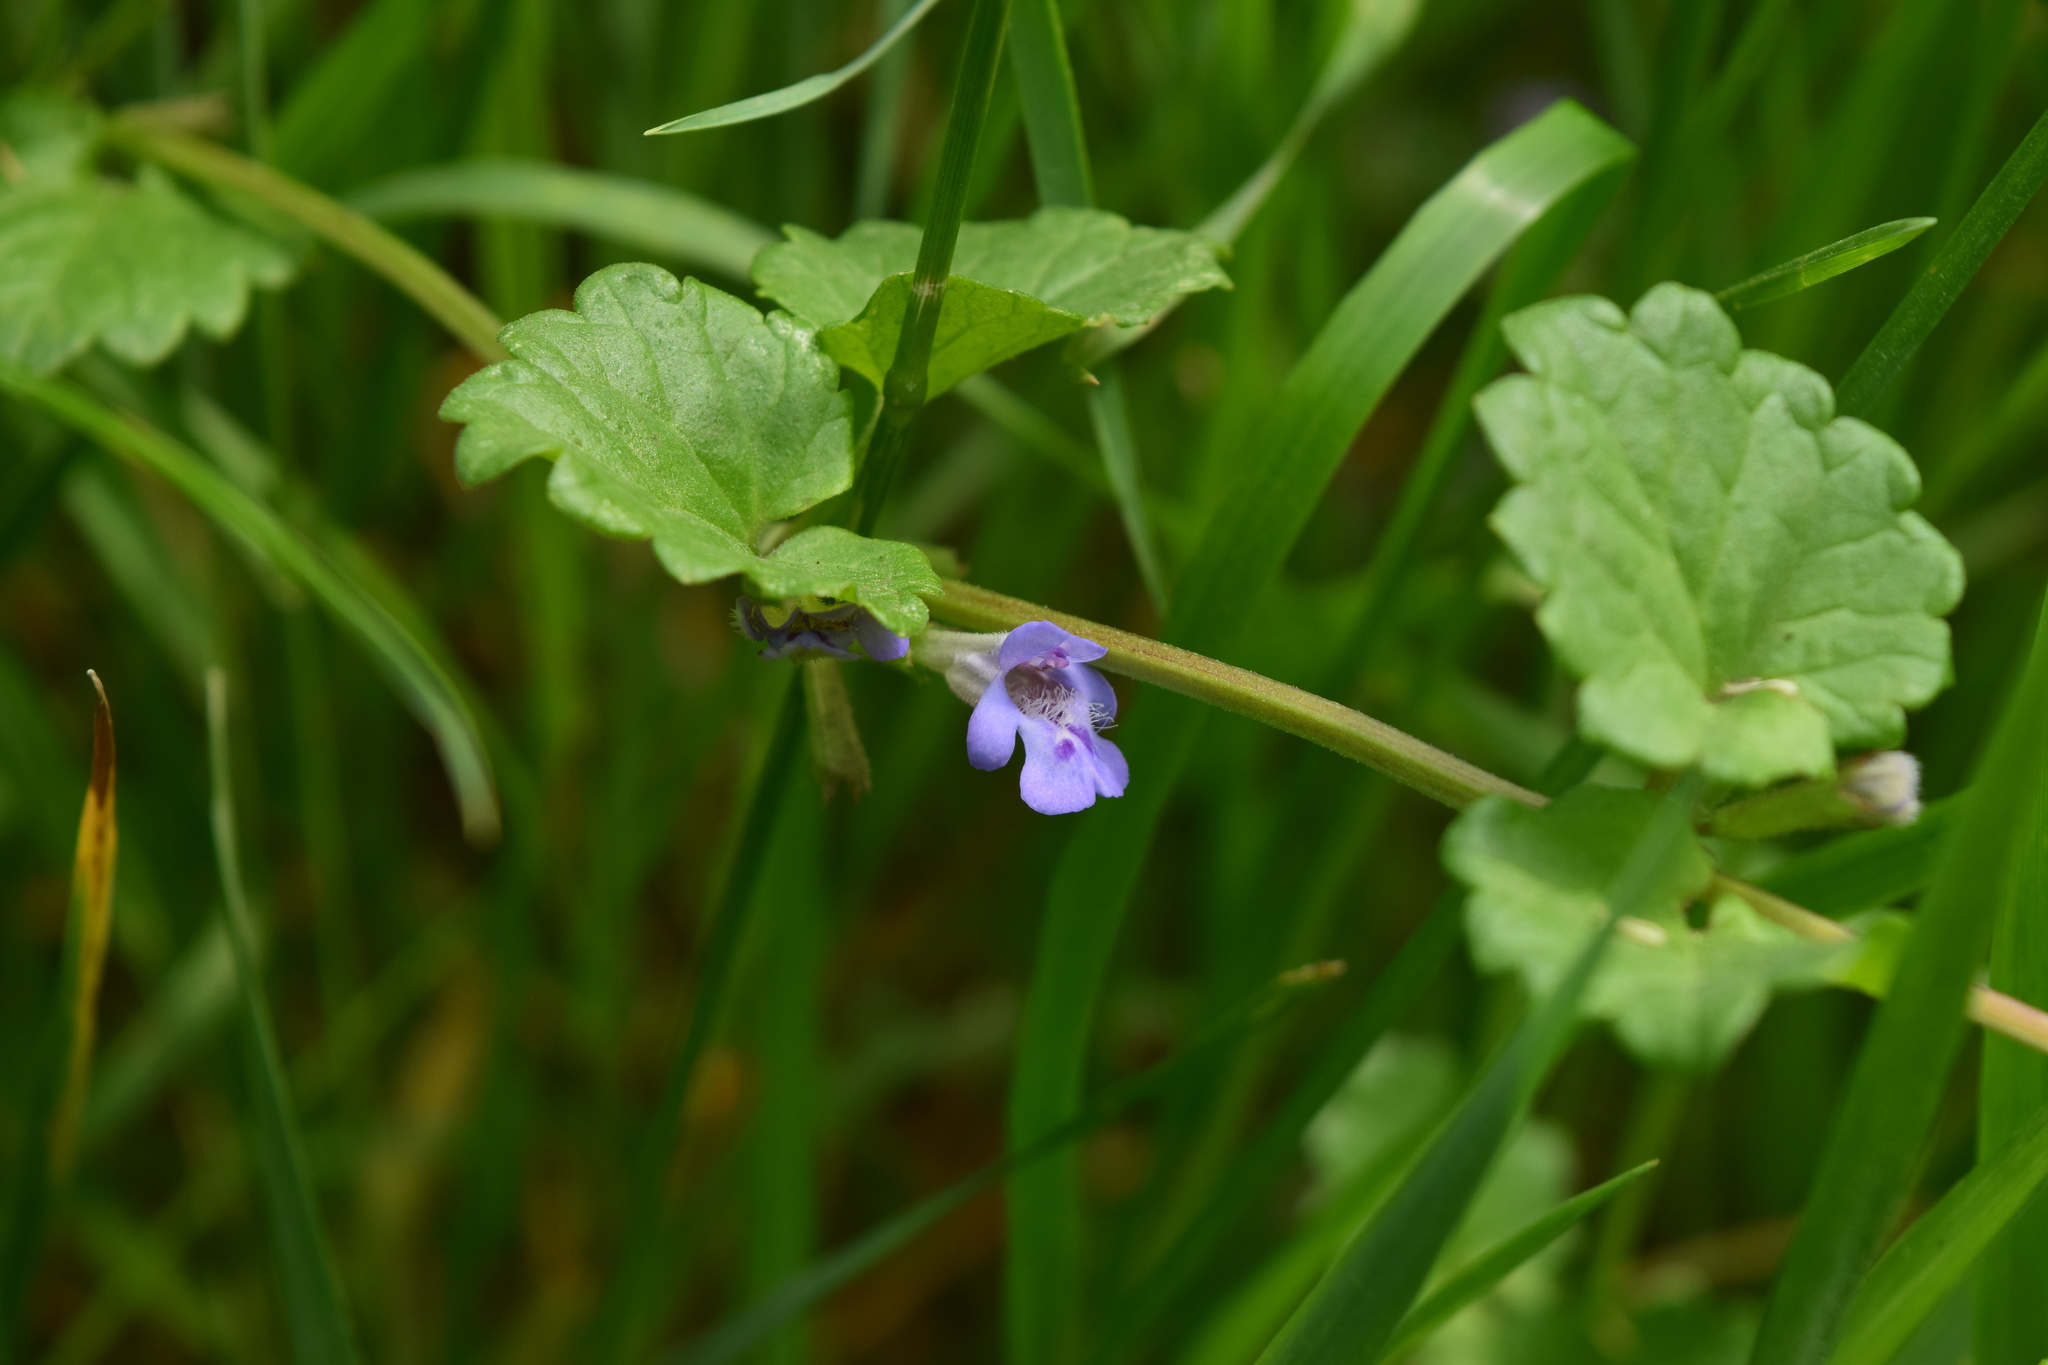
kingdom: Plantae
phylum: Tracheophyta
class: Magnoliopsida
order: Lamiales
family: Lamiaceae
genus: Glechoma
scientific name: Glechoma hederacea
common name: Ground ivy
